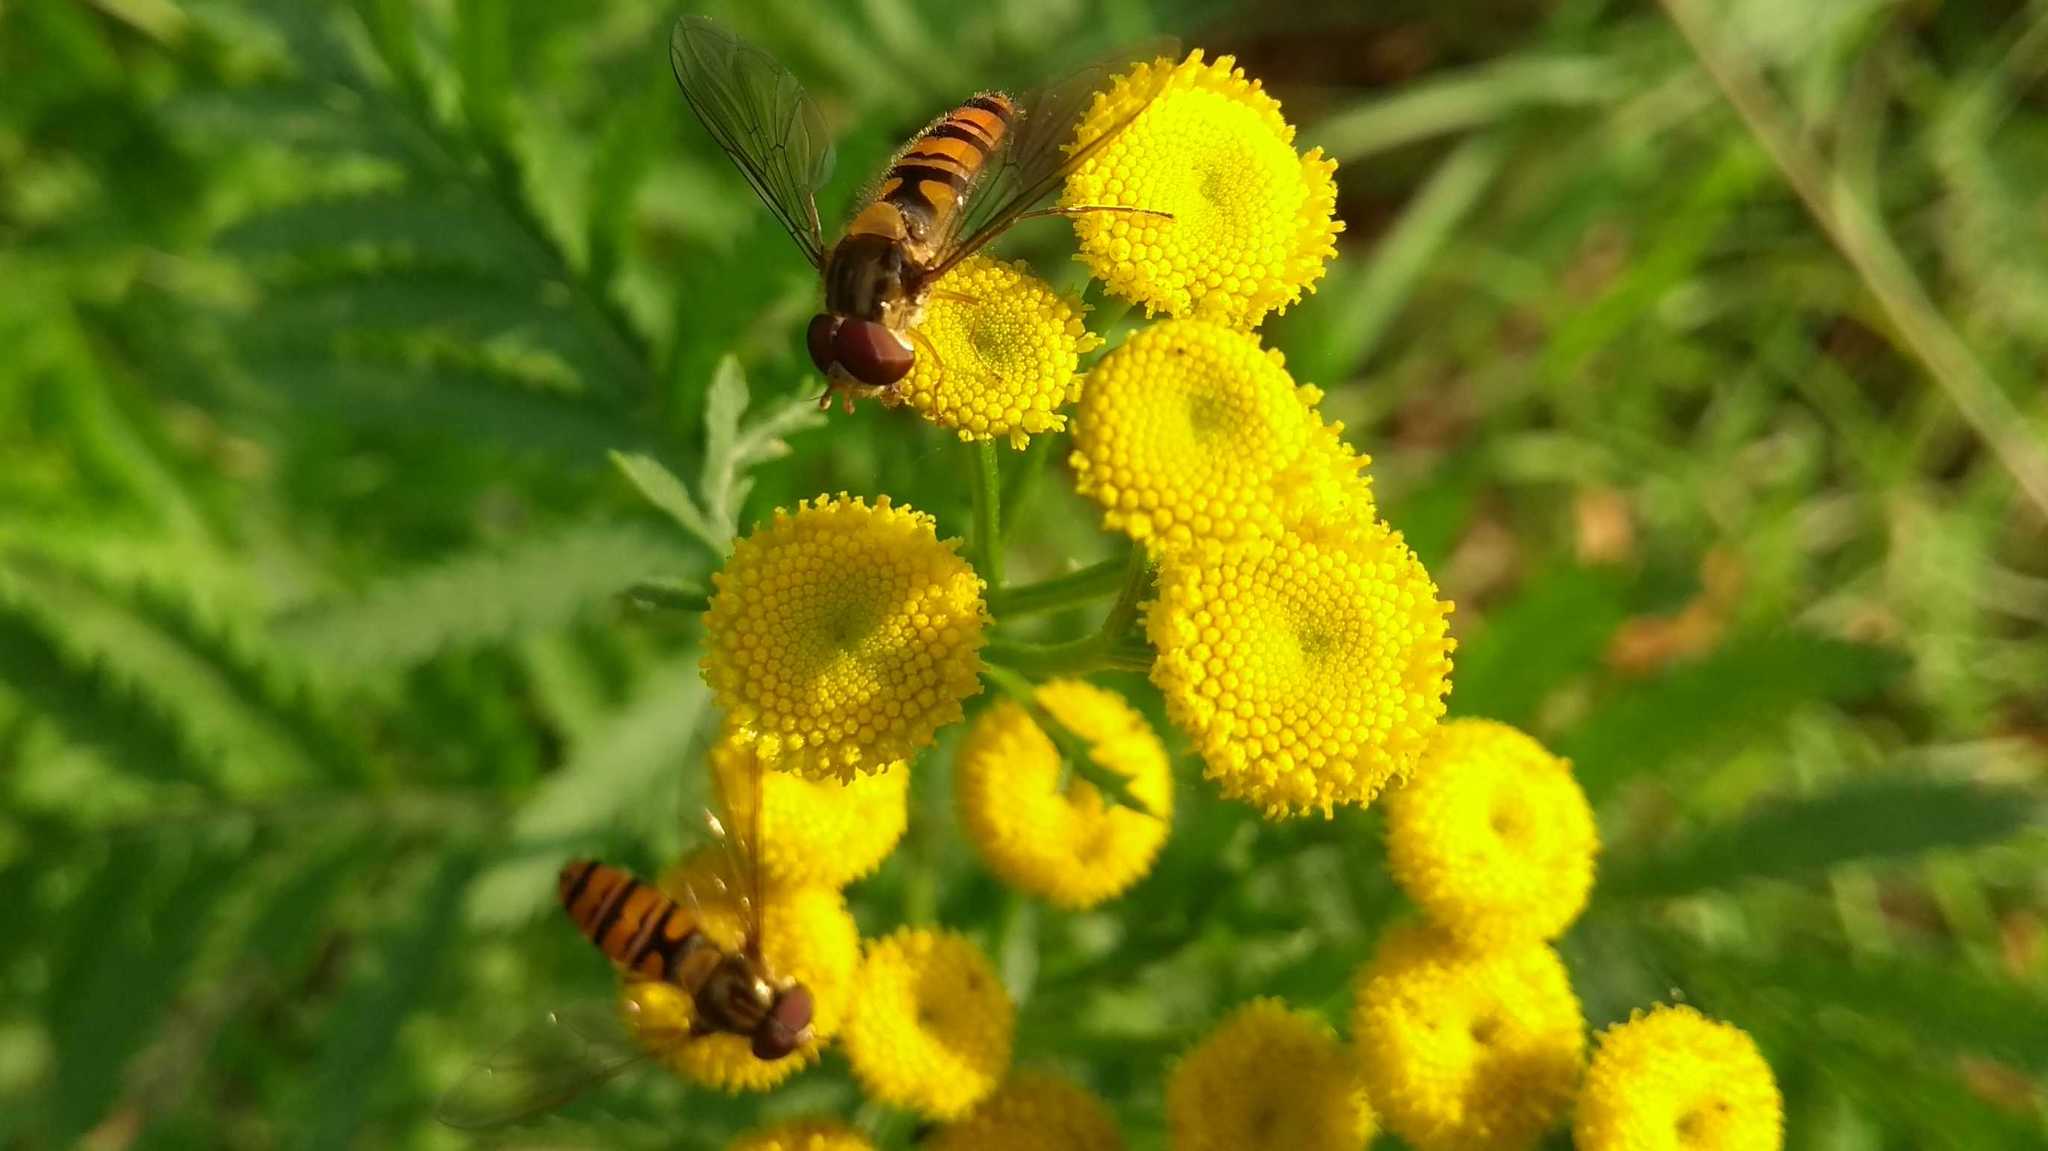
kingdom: Animalia
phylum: Arthropoda
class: Insecta
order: Diptera
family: Syrphidae
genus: Episyrphus
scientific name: Episyrphus balteatus
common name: Marmalade hoverfly
